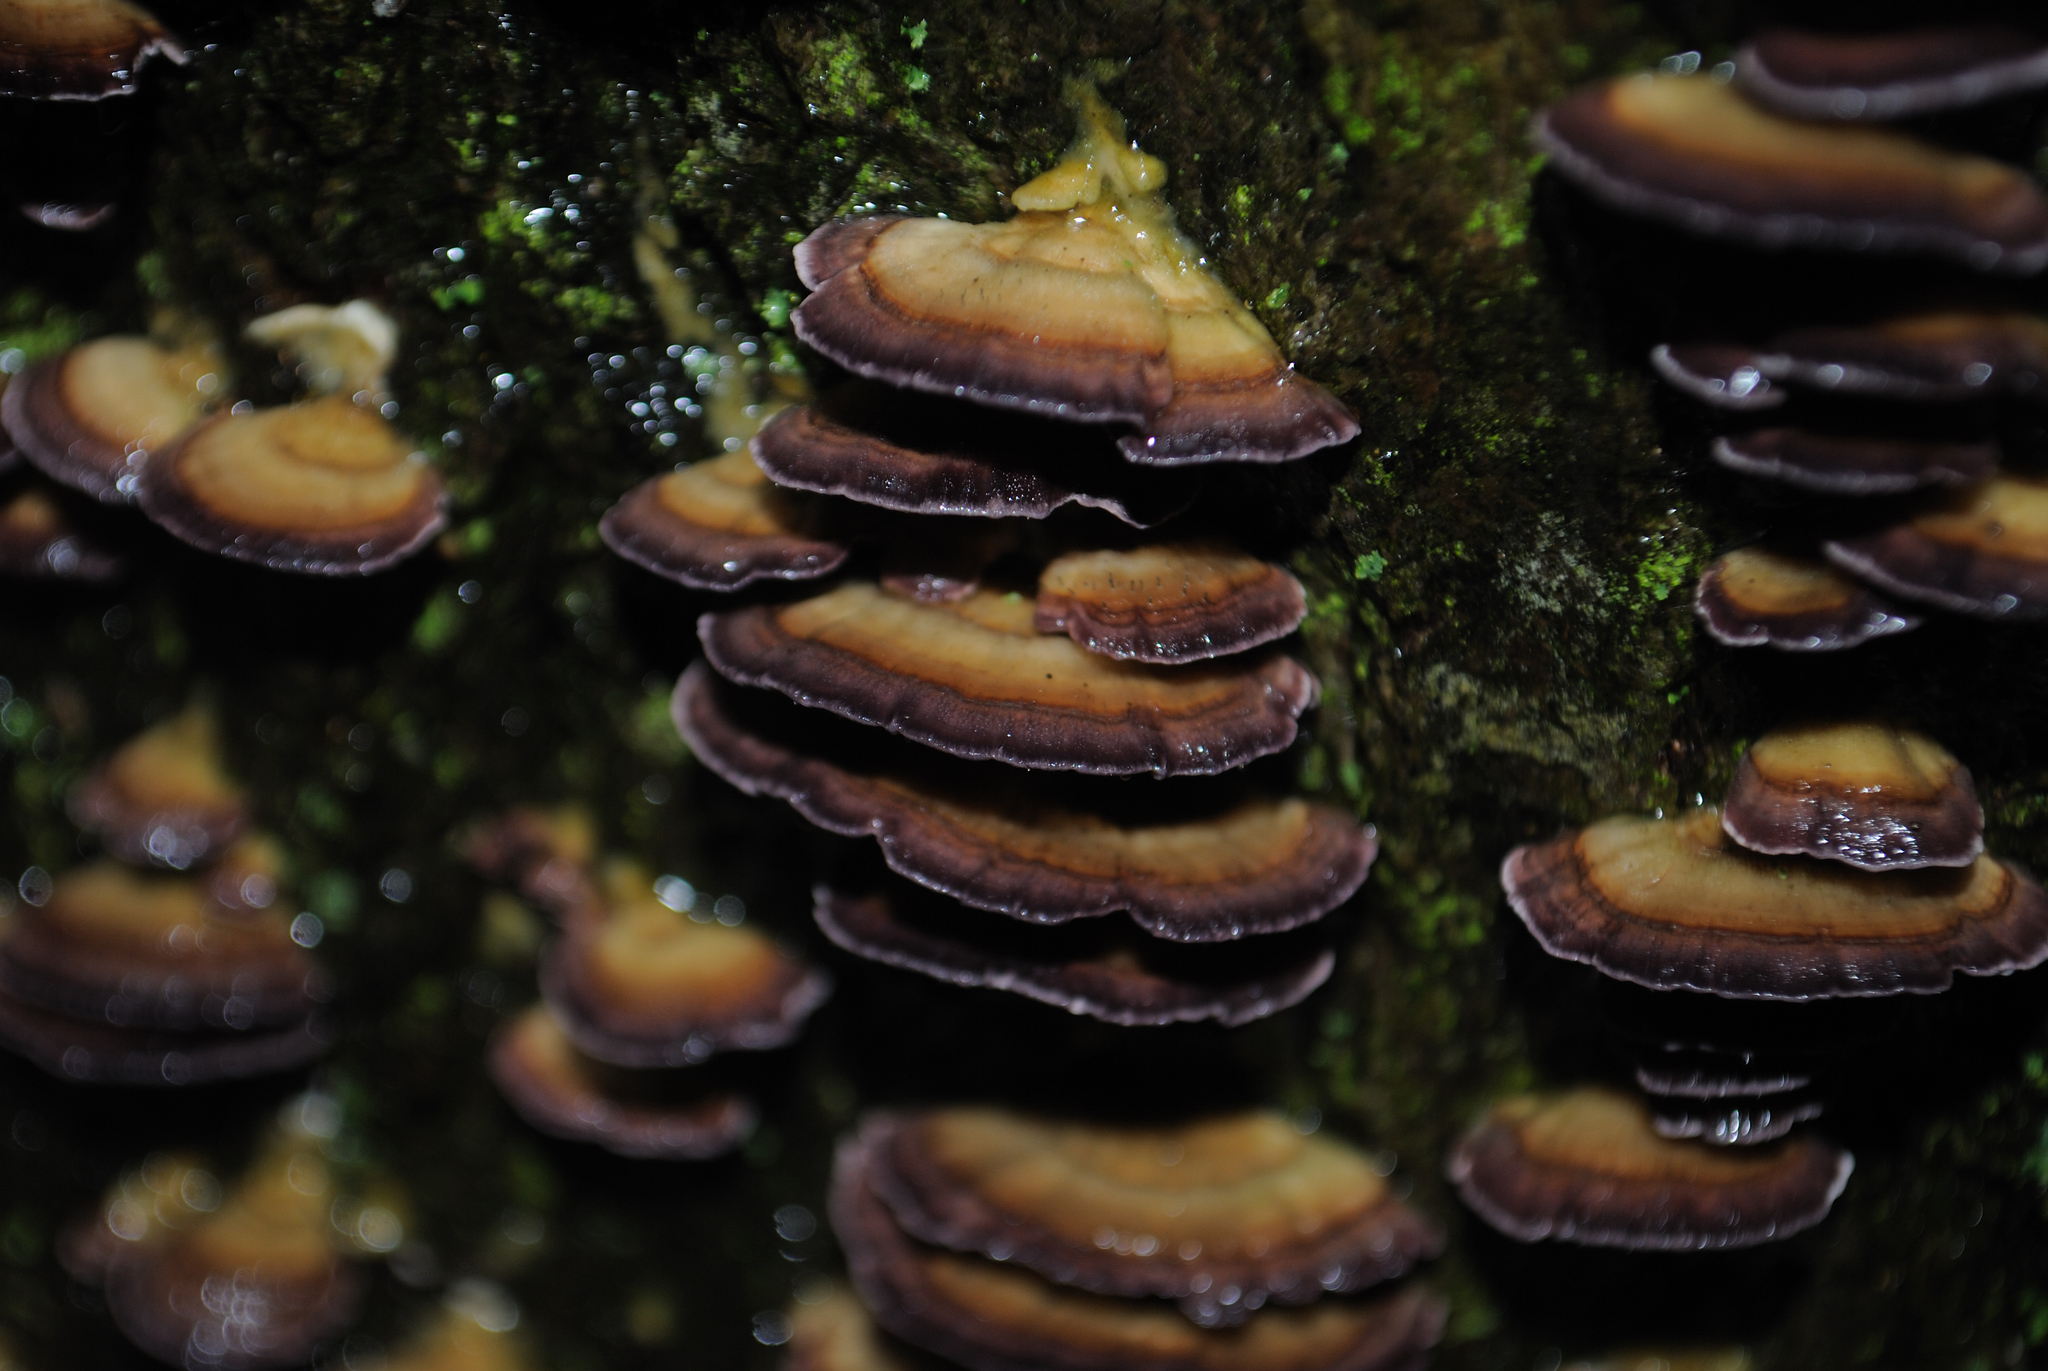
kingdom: Fungi
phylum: Basidiomycota
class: Agaricomycetes
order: Hymenochaetales
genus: Trichaptum
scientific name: Trichaptum biforme
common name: Violet-toothed polypore
